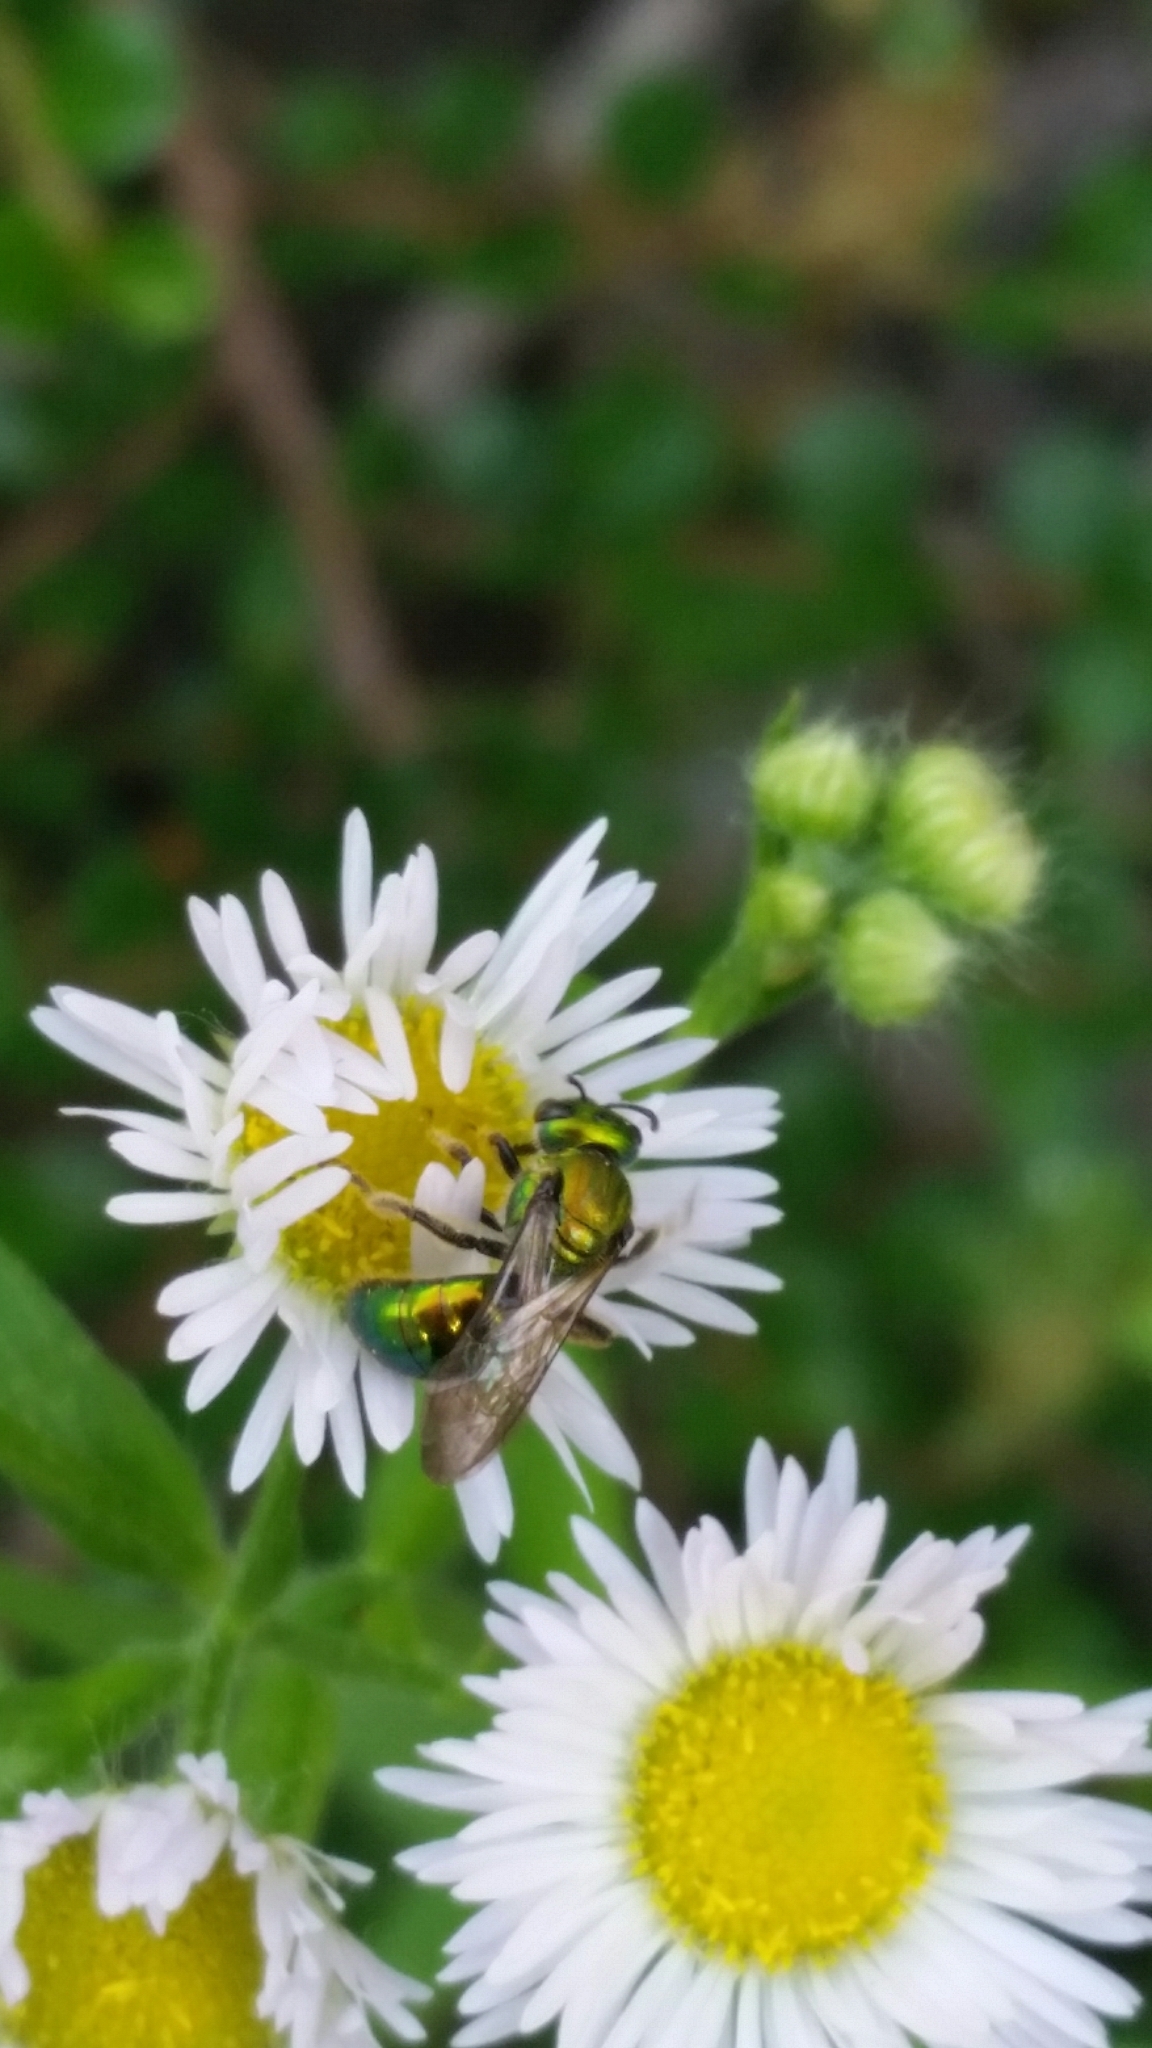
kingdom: Animalia
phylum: Arthropoda
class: Insecta
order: Hymenoptera
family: Halictidae
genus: Augochlora
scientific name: Augochlora pura
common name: Pure green sweat bee
